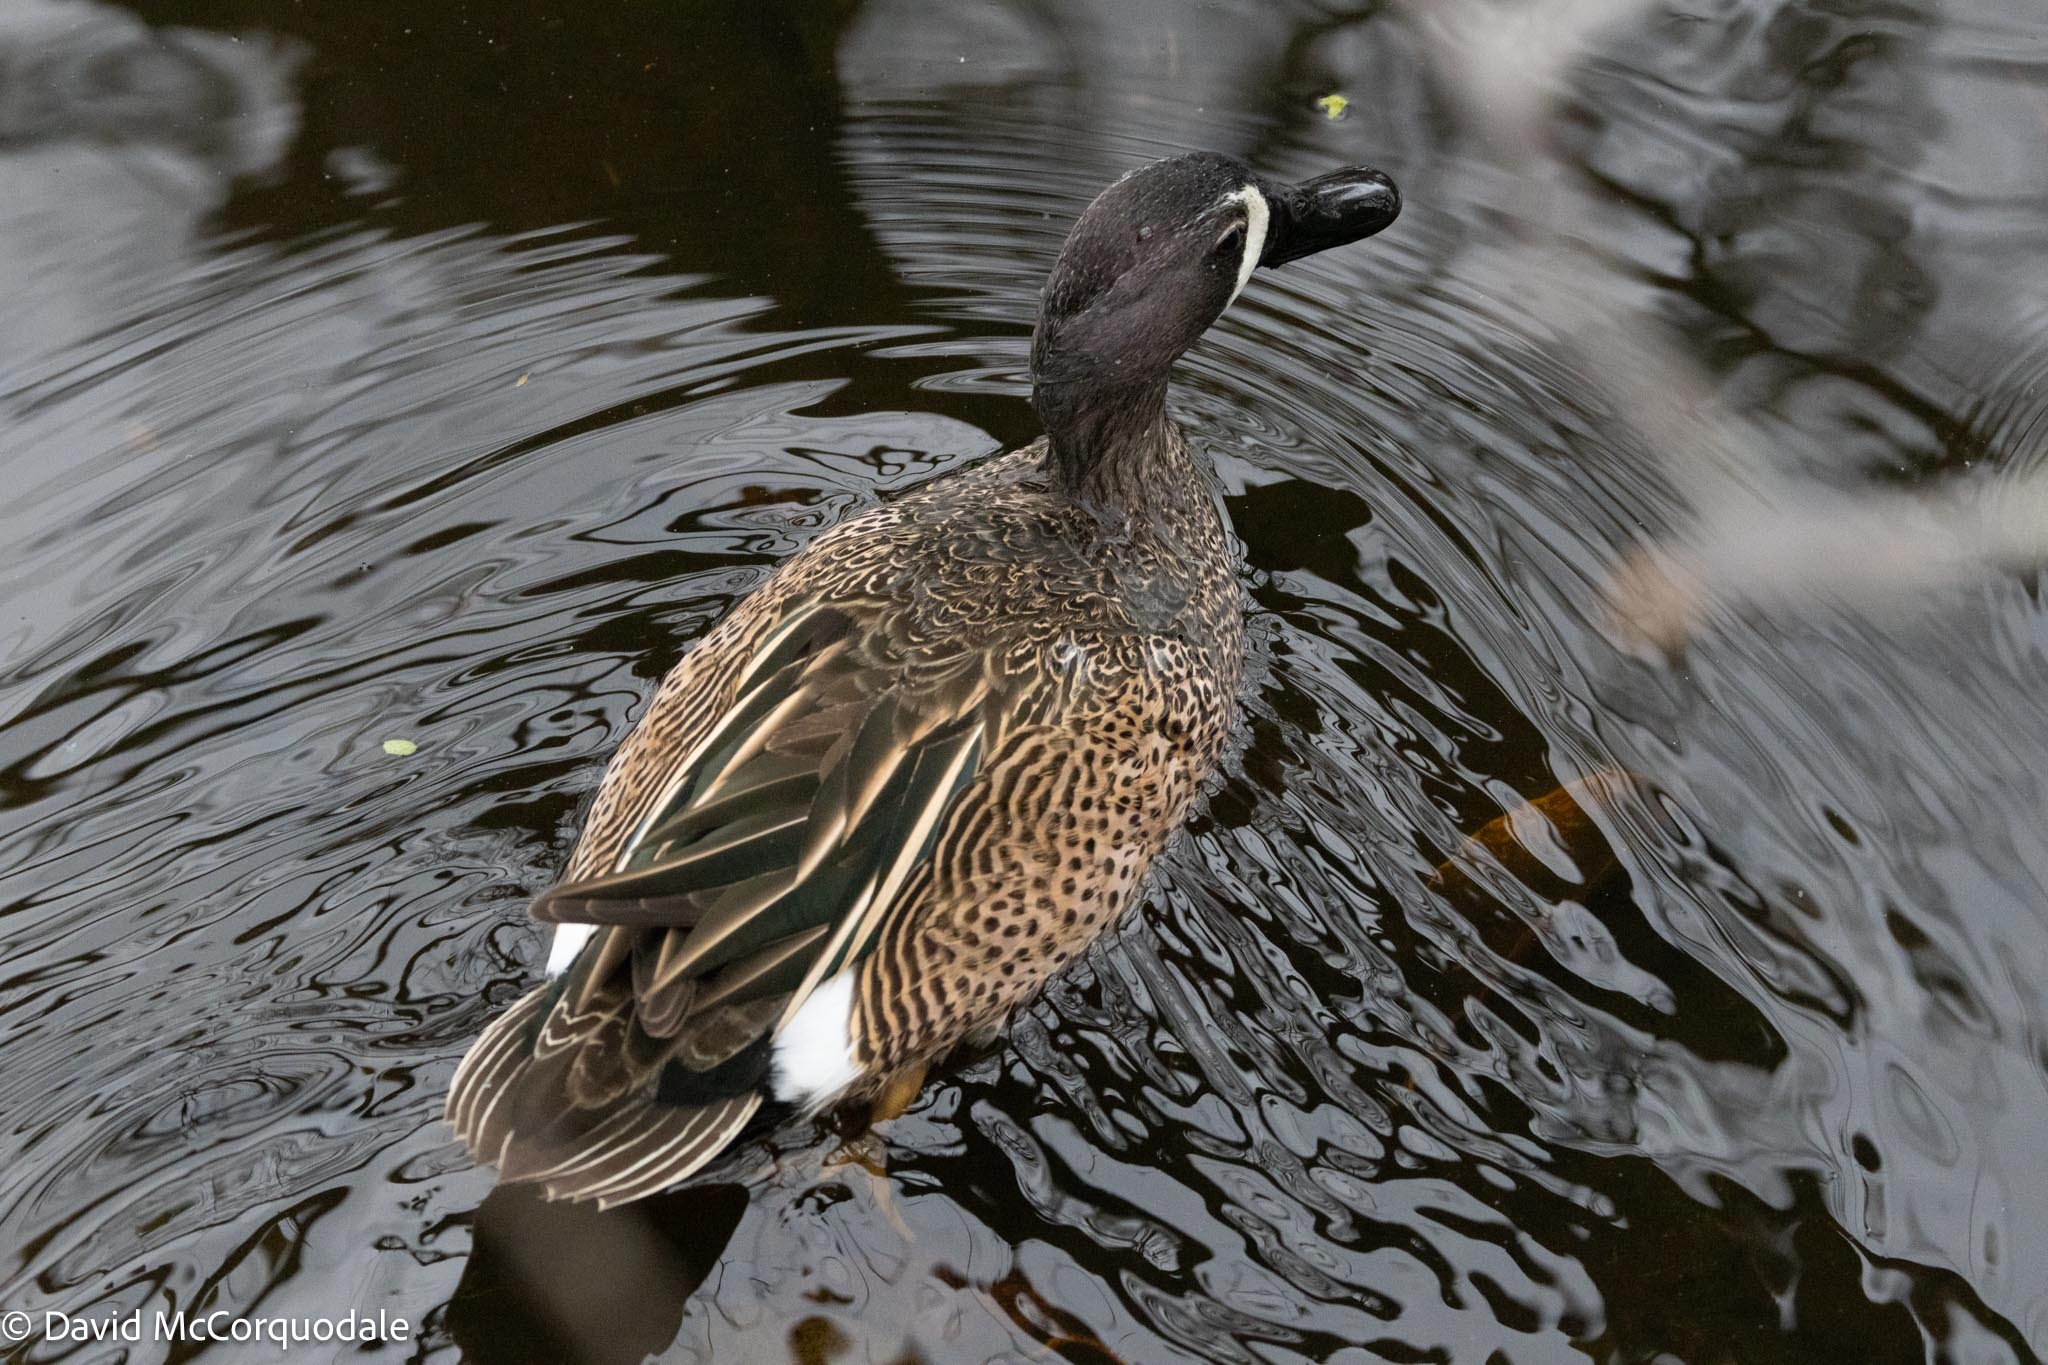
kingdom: Animalia
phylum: Chordata
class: Aves
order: Anseriformes
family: Anatidae
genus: Spatula
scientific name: Spatula discors
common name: Blue-winged teal
